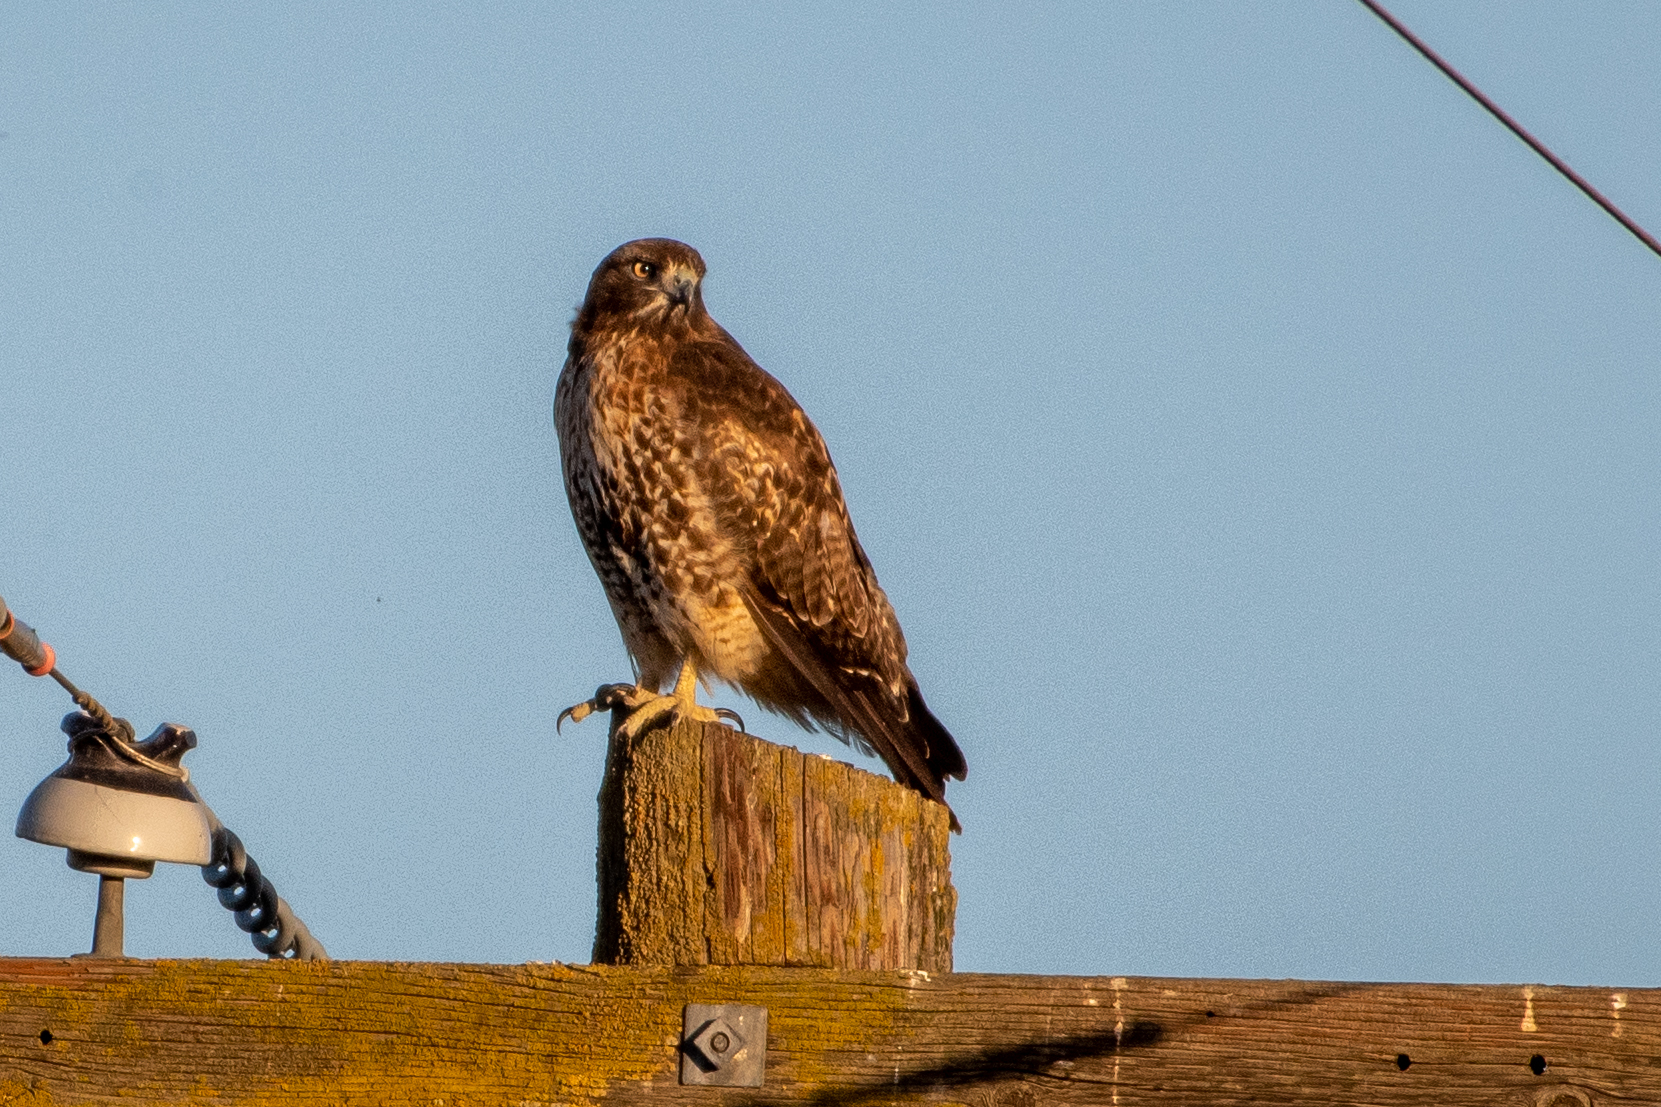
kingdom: Animalia
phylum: Chordata
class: Aves
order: Accipitriformes
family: Accipitridae
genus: Buteo
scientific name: Buteo jamaicensis
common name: Red-tailed hawk
